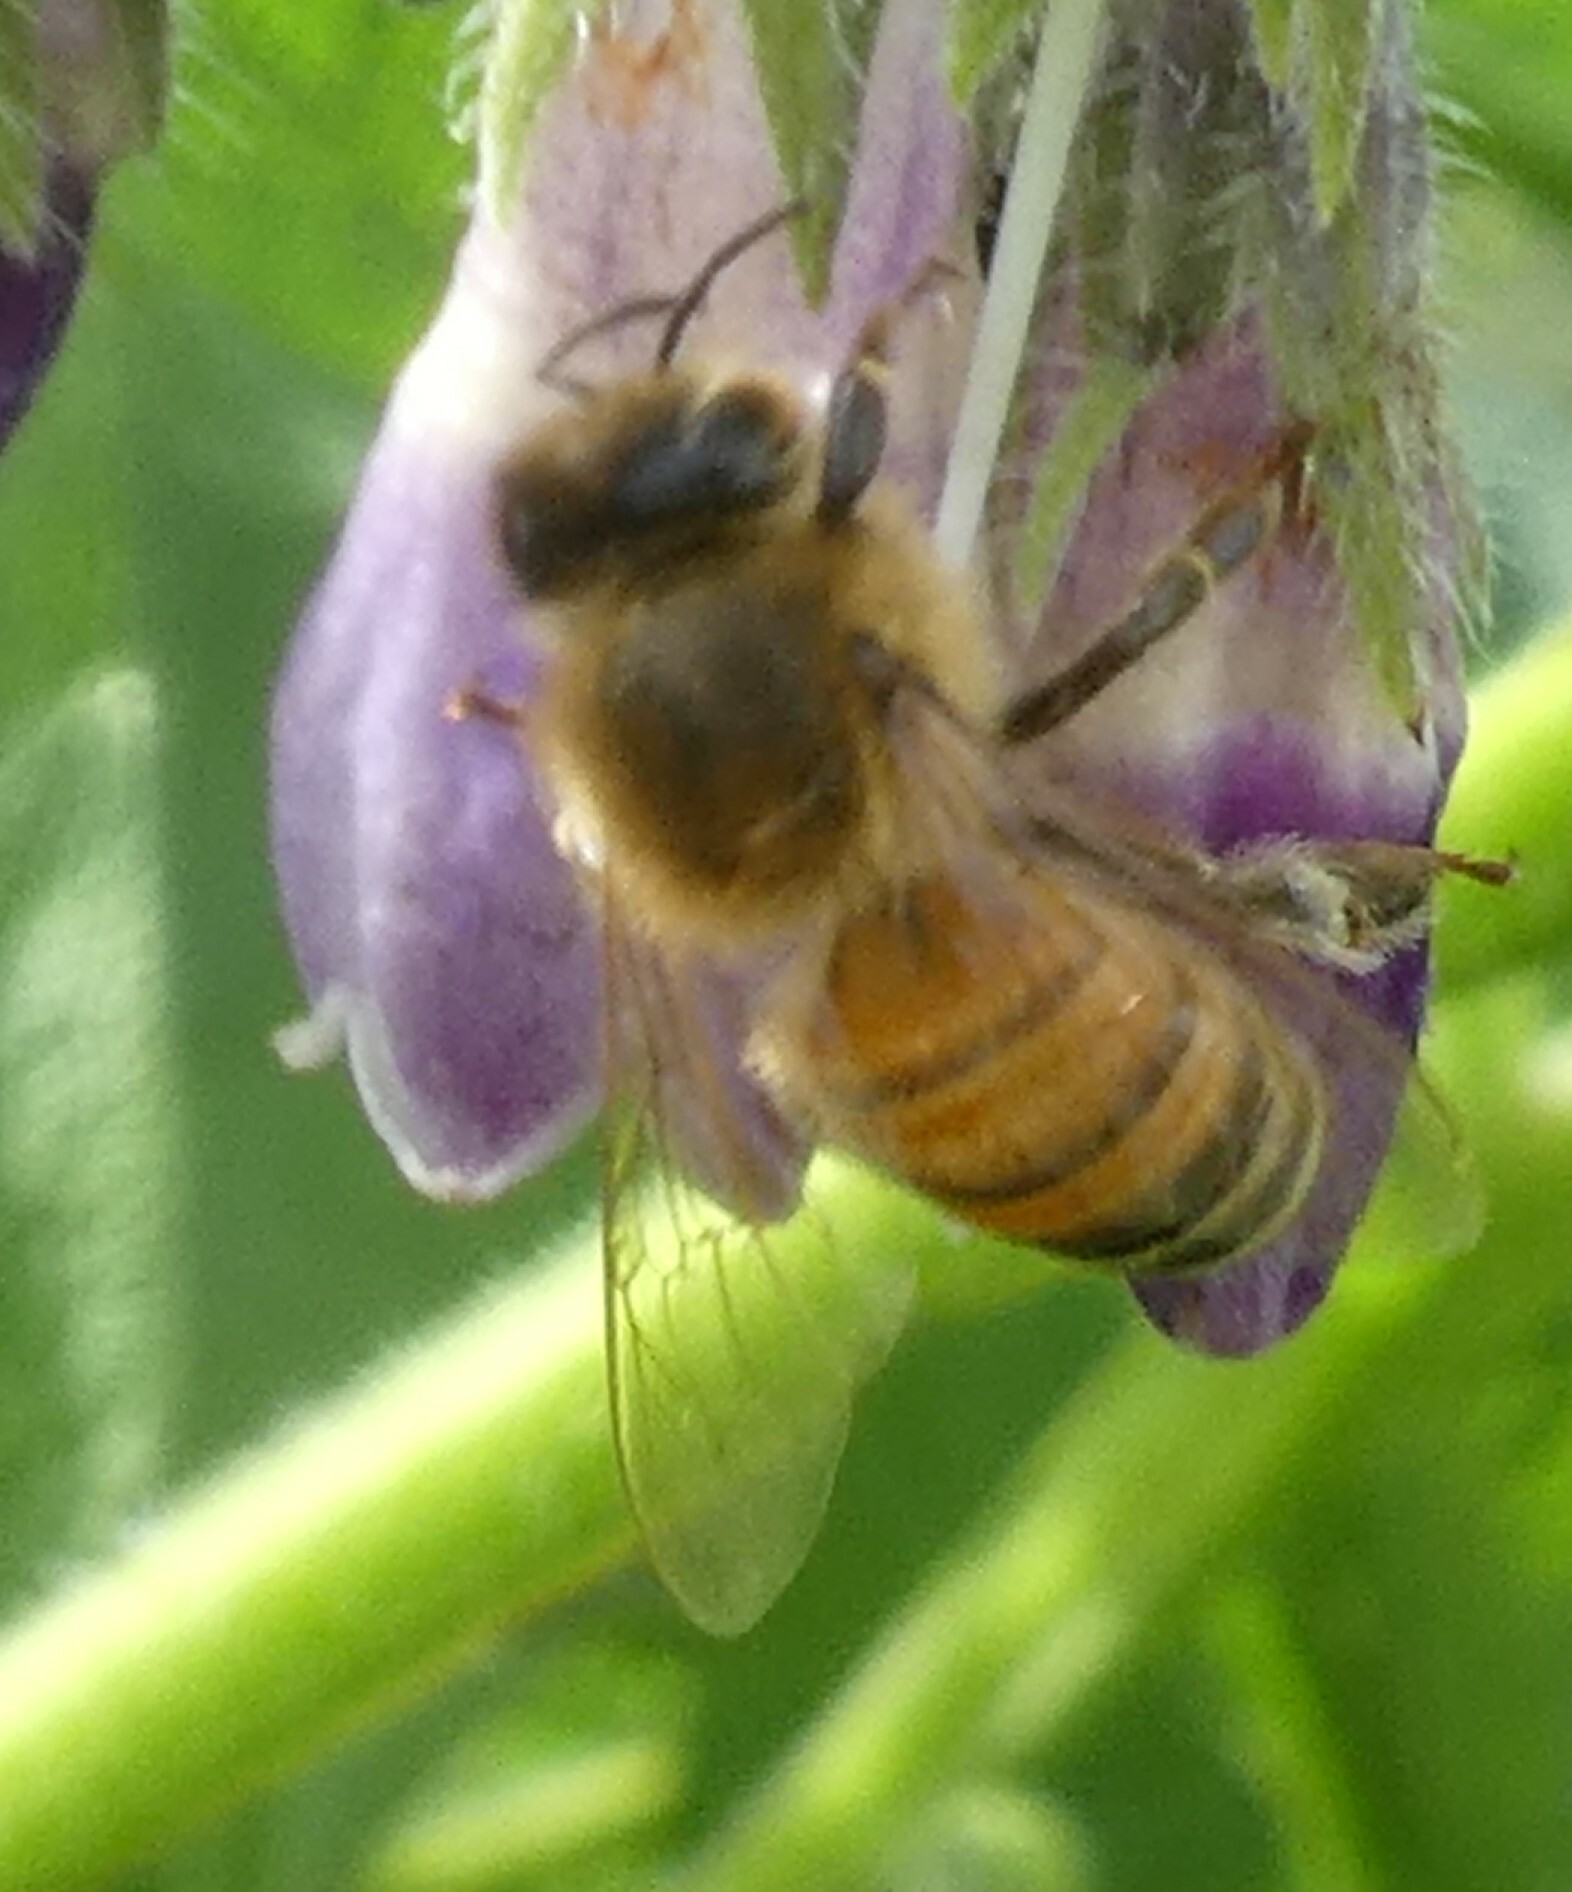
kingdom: Animalia
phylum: Arthropoda
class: Insecta
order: Hymenoptera
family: Apidae
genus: Apis
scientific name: Apis mellifera
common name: Honey bee
